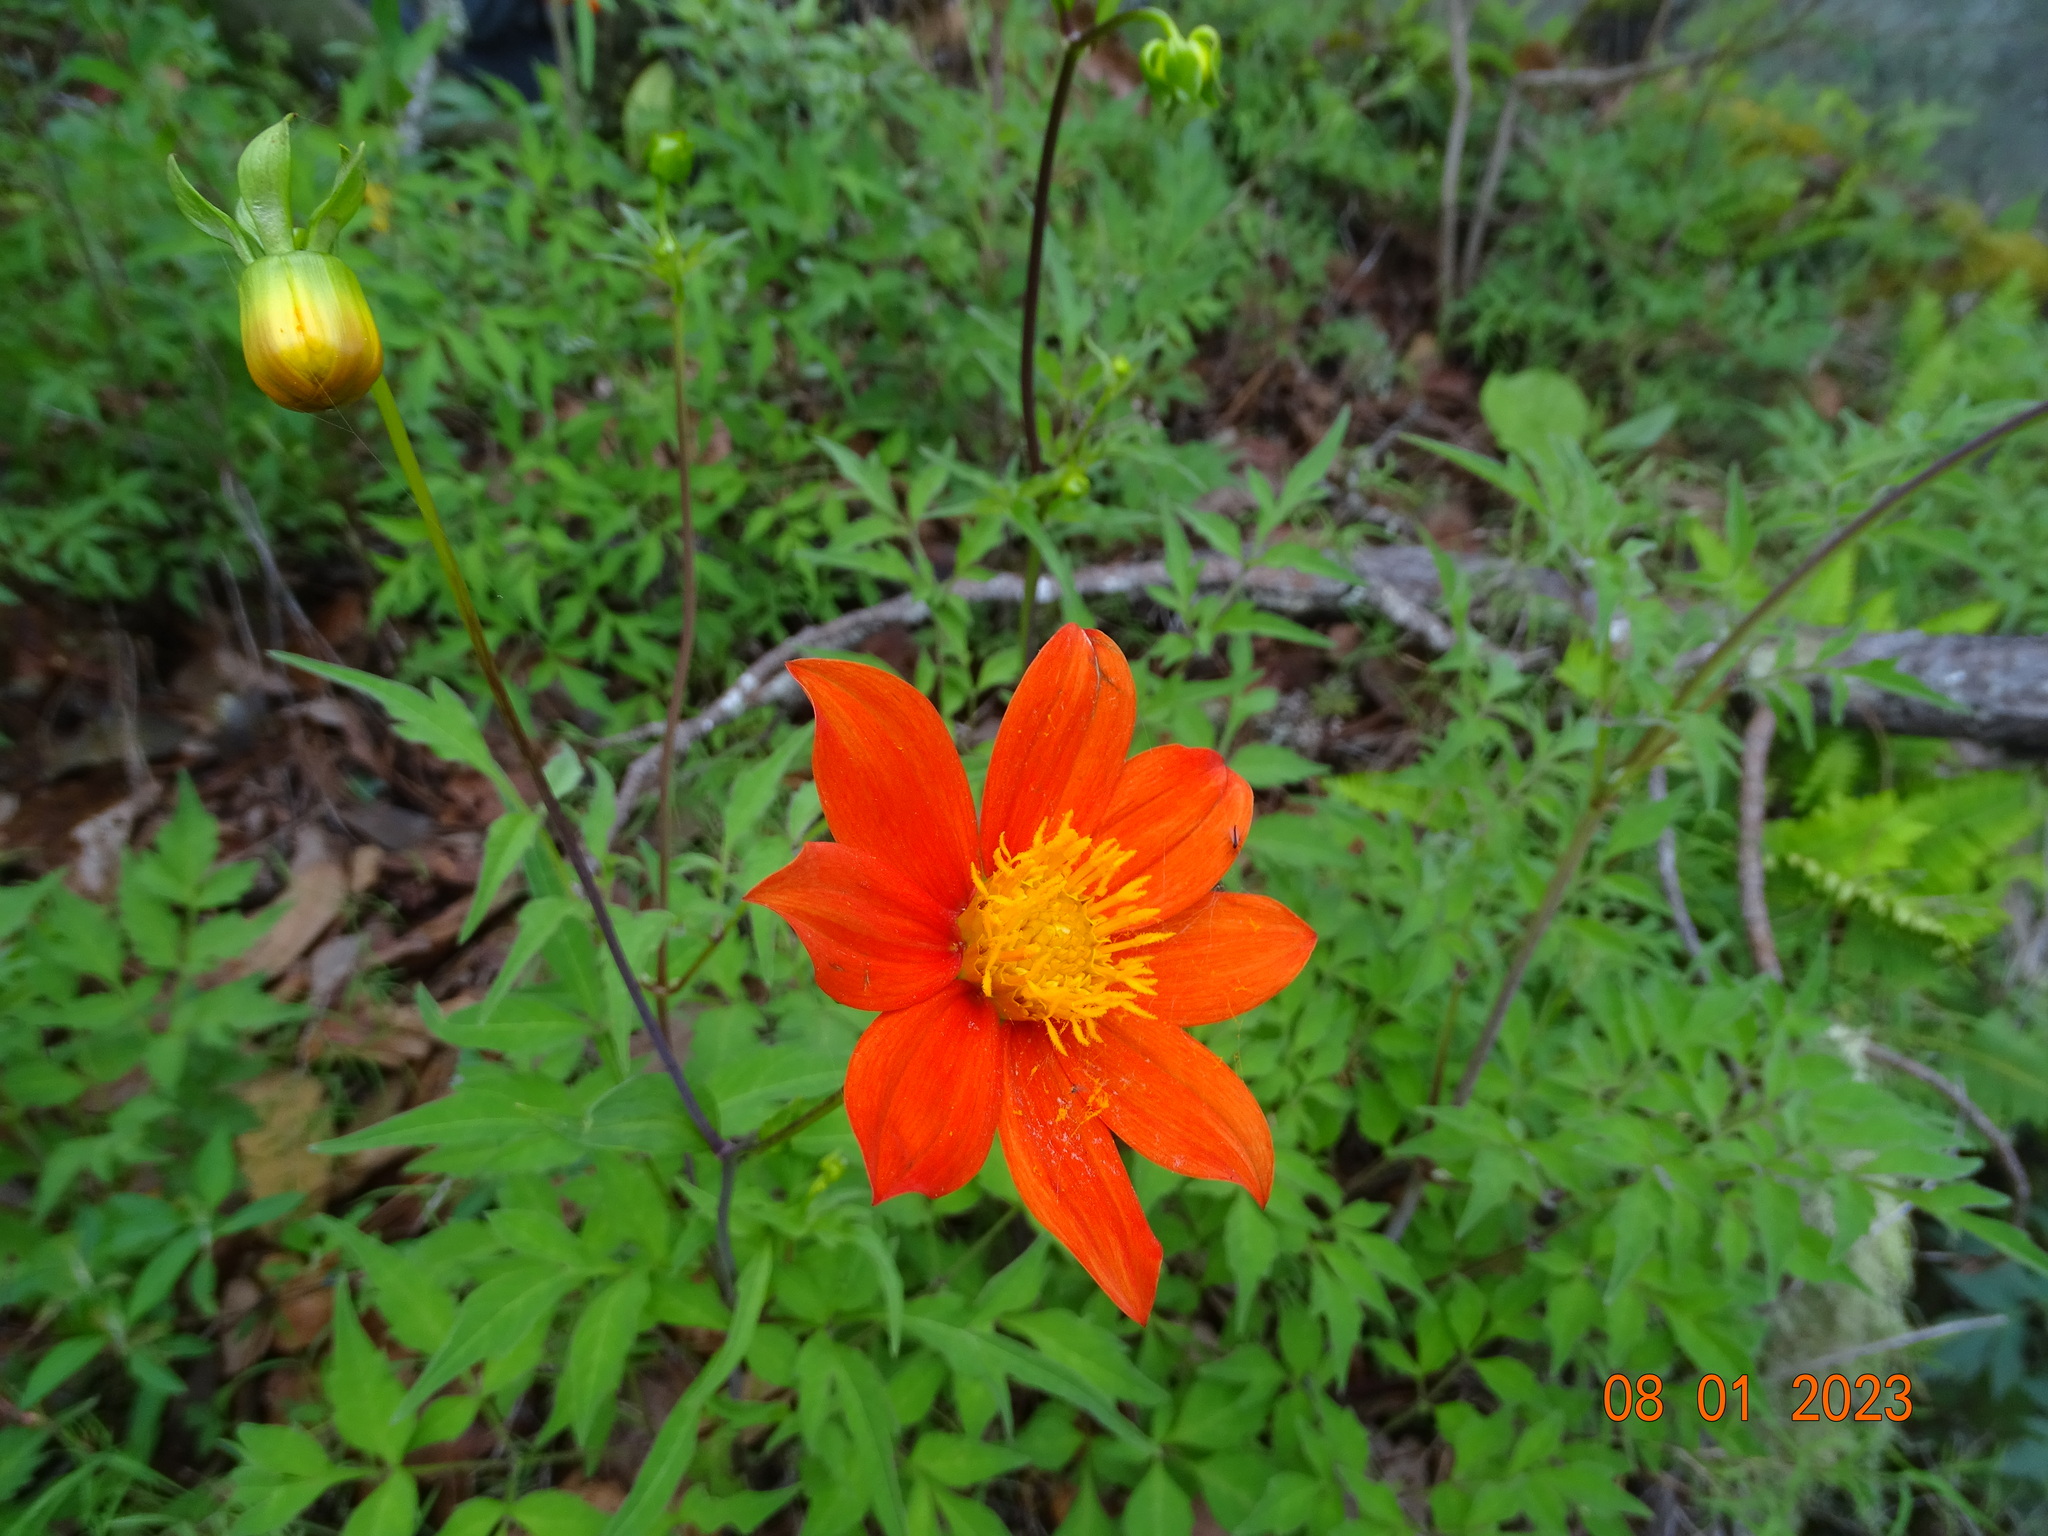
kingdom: Plantae
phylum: Tracheophyta
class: Magnoliopsida
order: Asterales
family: Asteraceae
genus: Dahlia
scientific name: Dahlia coccinea
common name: Red dahlia
